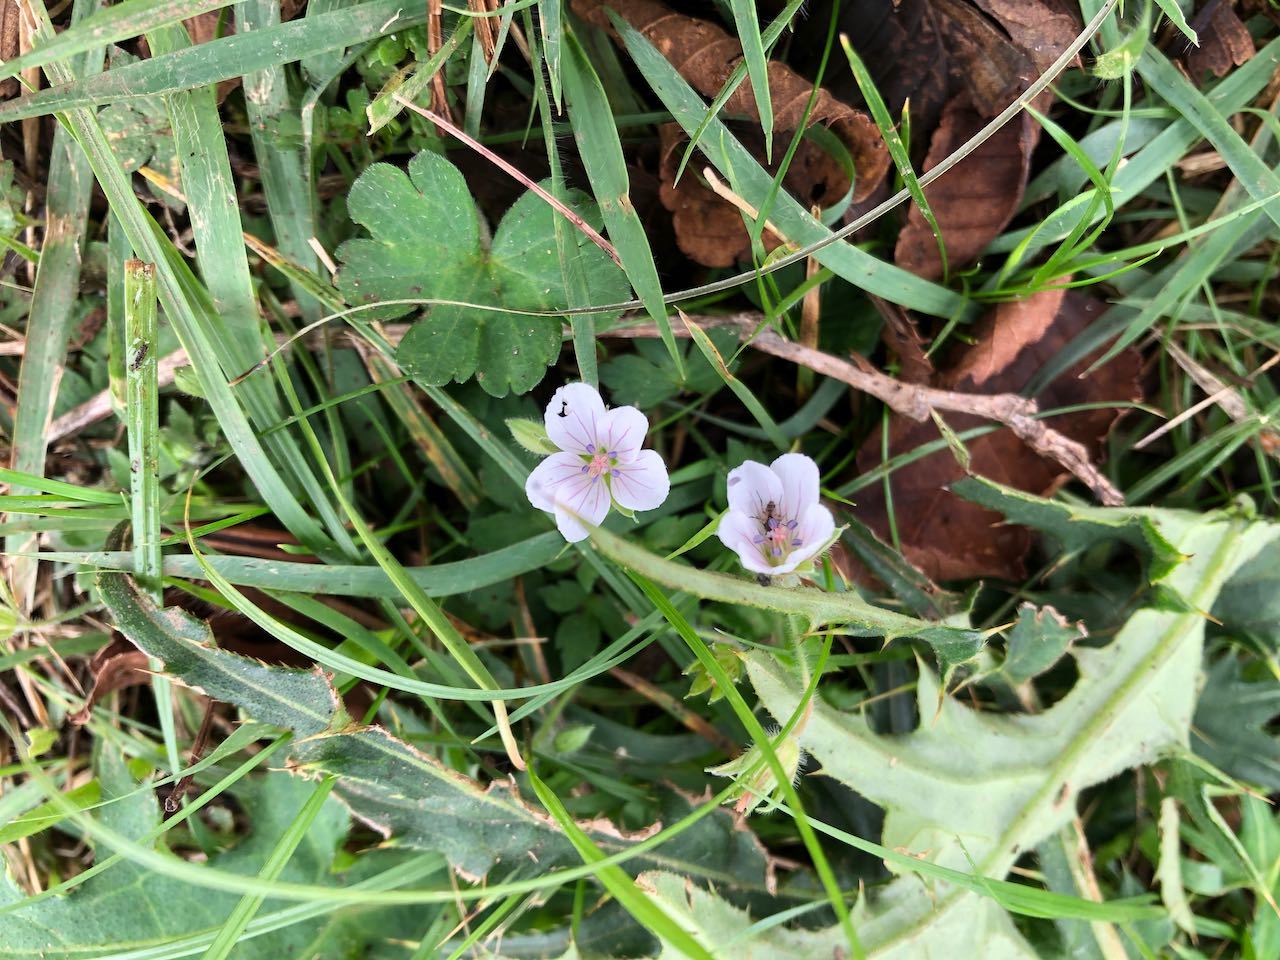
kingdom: Plantae
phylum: Tracheophyta
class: Magnoliopsida
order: Geraniales
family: Geraniaceae
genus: Geranium
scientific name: Geranium thunbergii
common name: Dewdrop crane's-bill
